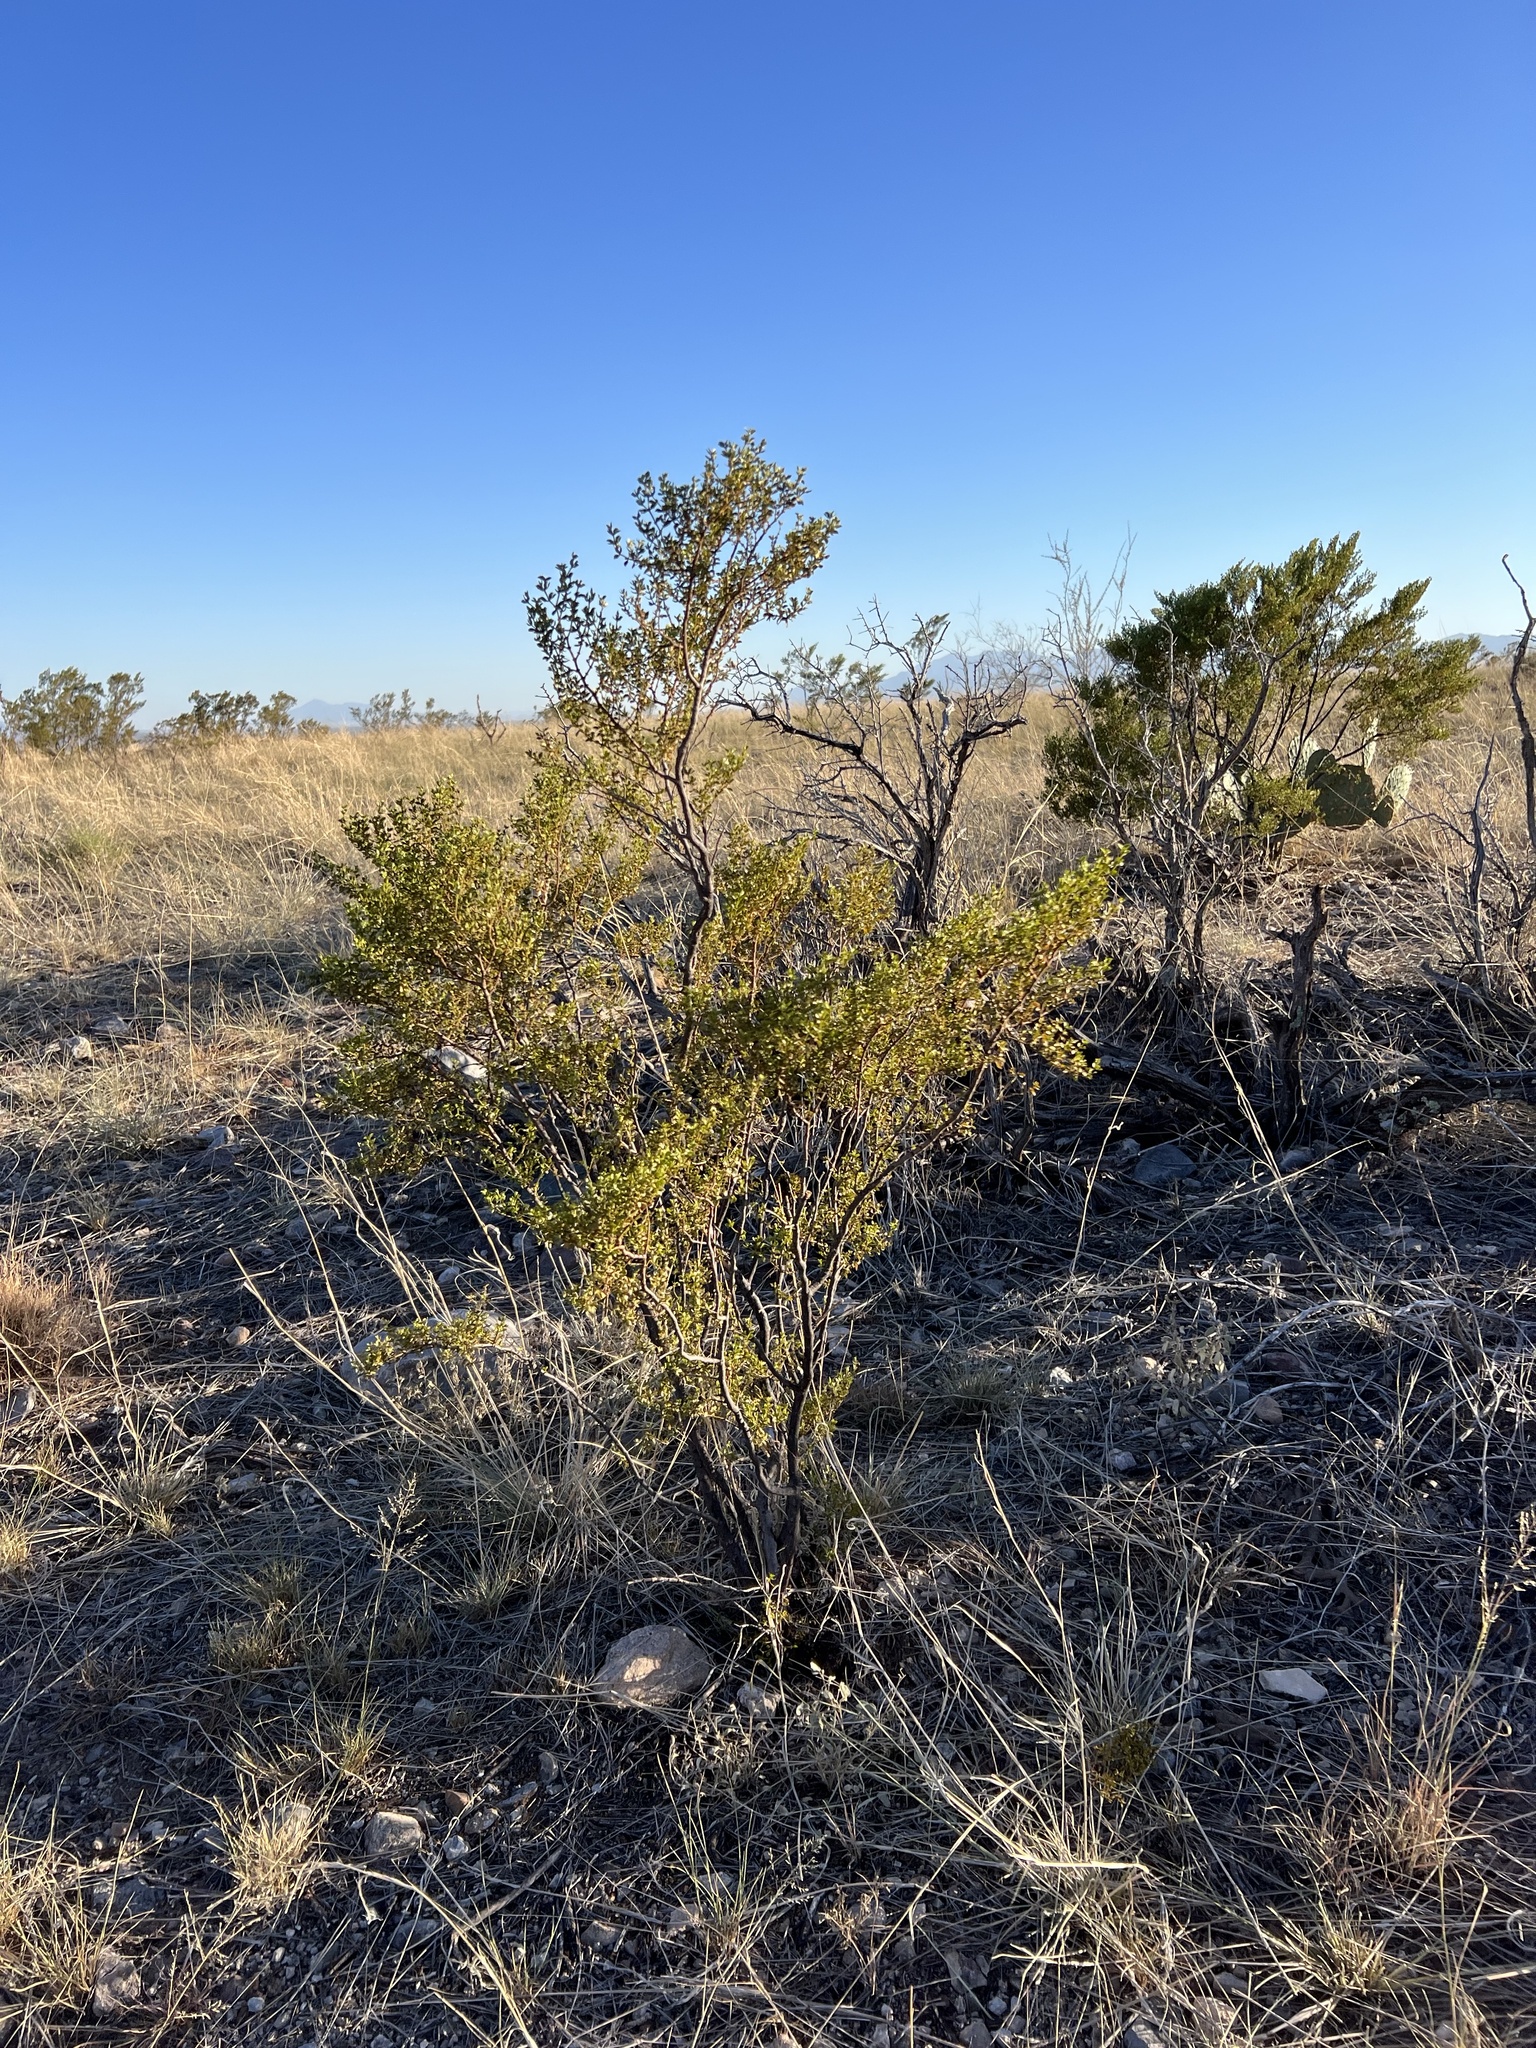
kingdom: Plantae
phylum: Tracheophyta
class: Magnoliopsida
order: Zygophyllales
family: Zygophyllaceae
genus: Larrea
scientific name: Larrea tridentata
